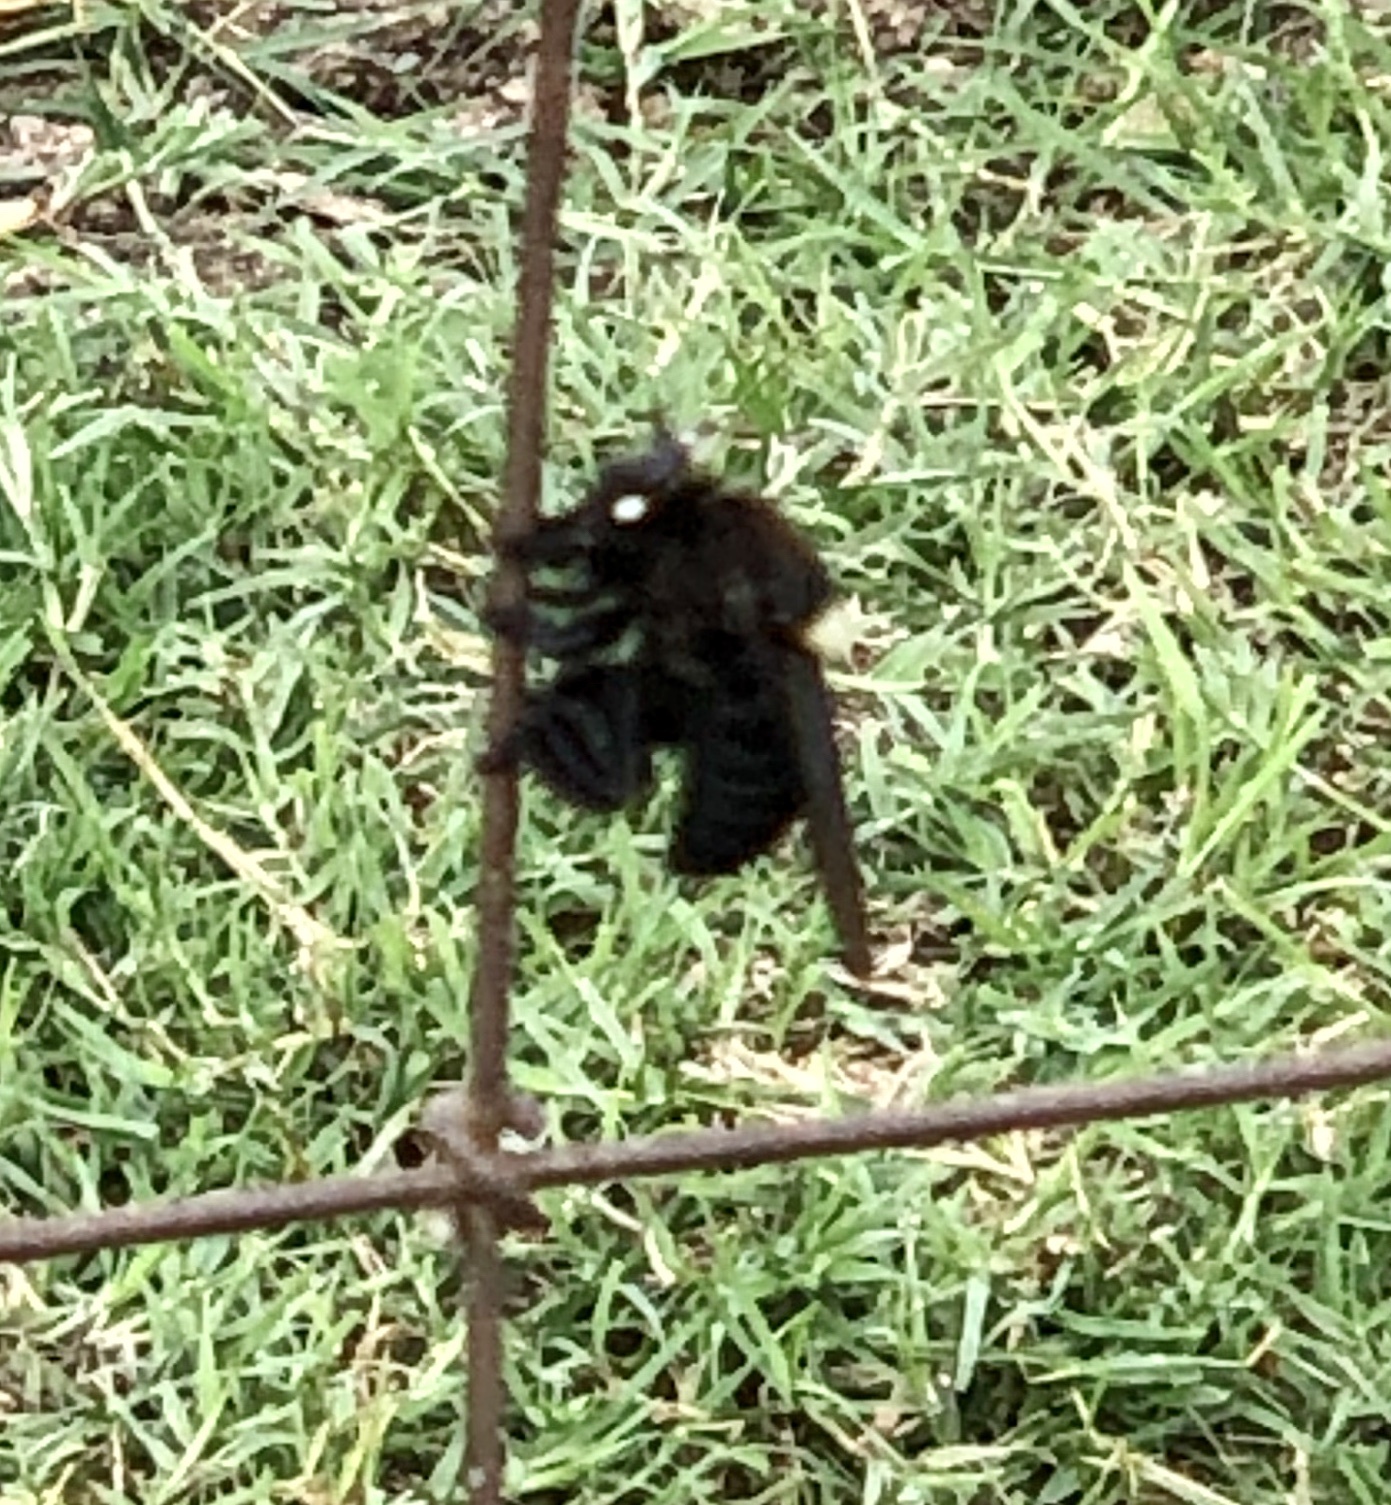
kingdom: Animalia
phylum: Arthropoda
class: Insecta
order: Diptera
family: Asilidae
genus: Mallophora
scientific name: Mallophora leschenaultii
